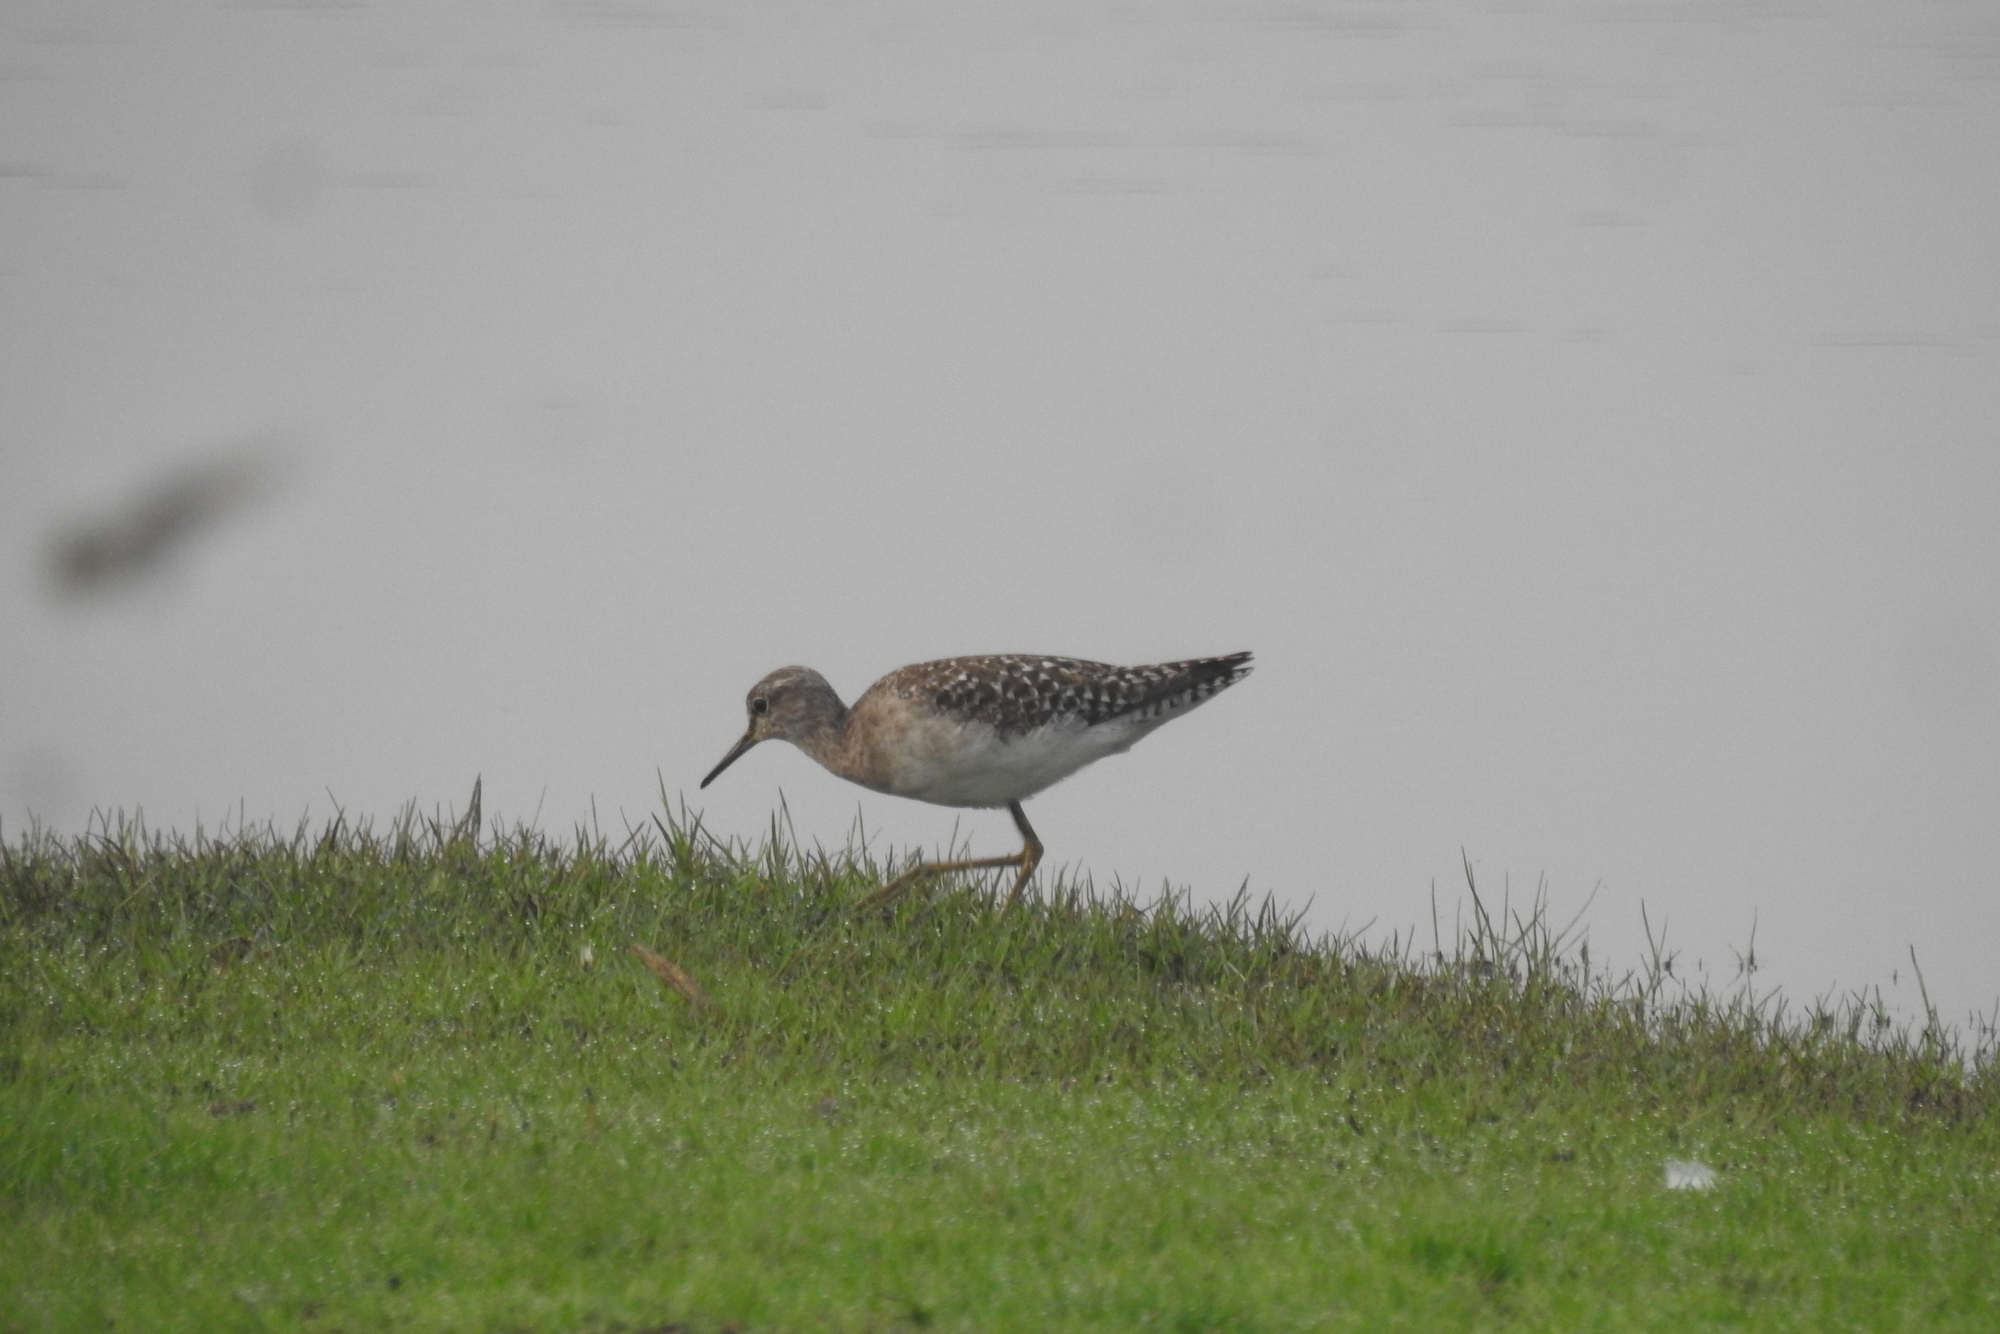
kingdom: Animalia
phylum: Chordata
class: Aves
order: Charadriiformes
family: Scolopacidae
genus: Tringa
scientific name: Tringa glareola
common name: Wood sandpiper
